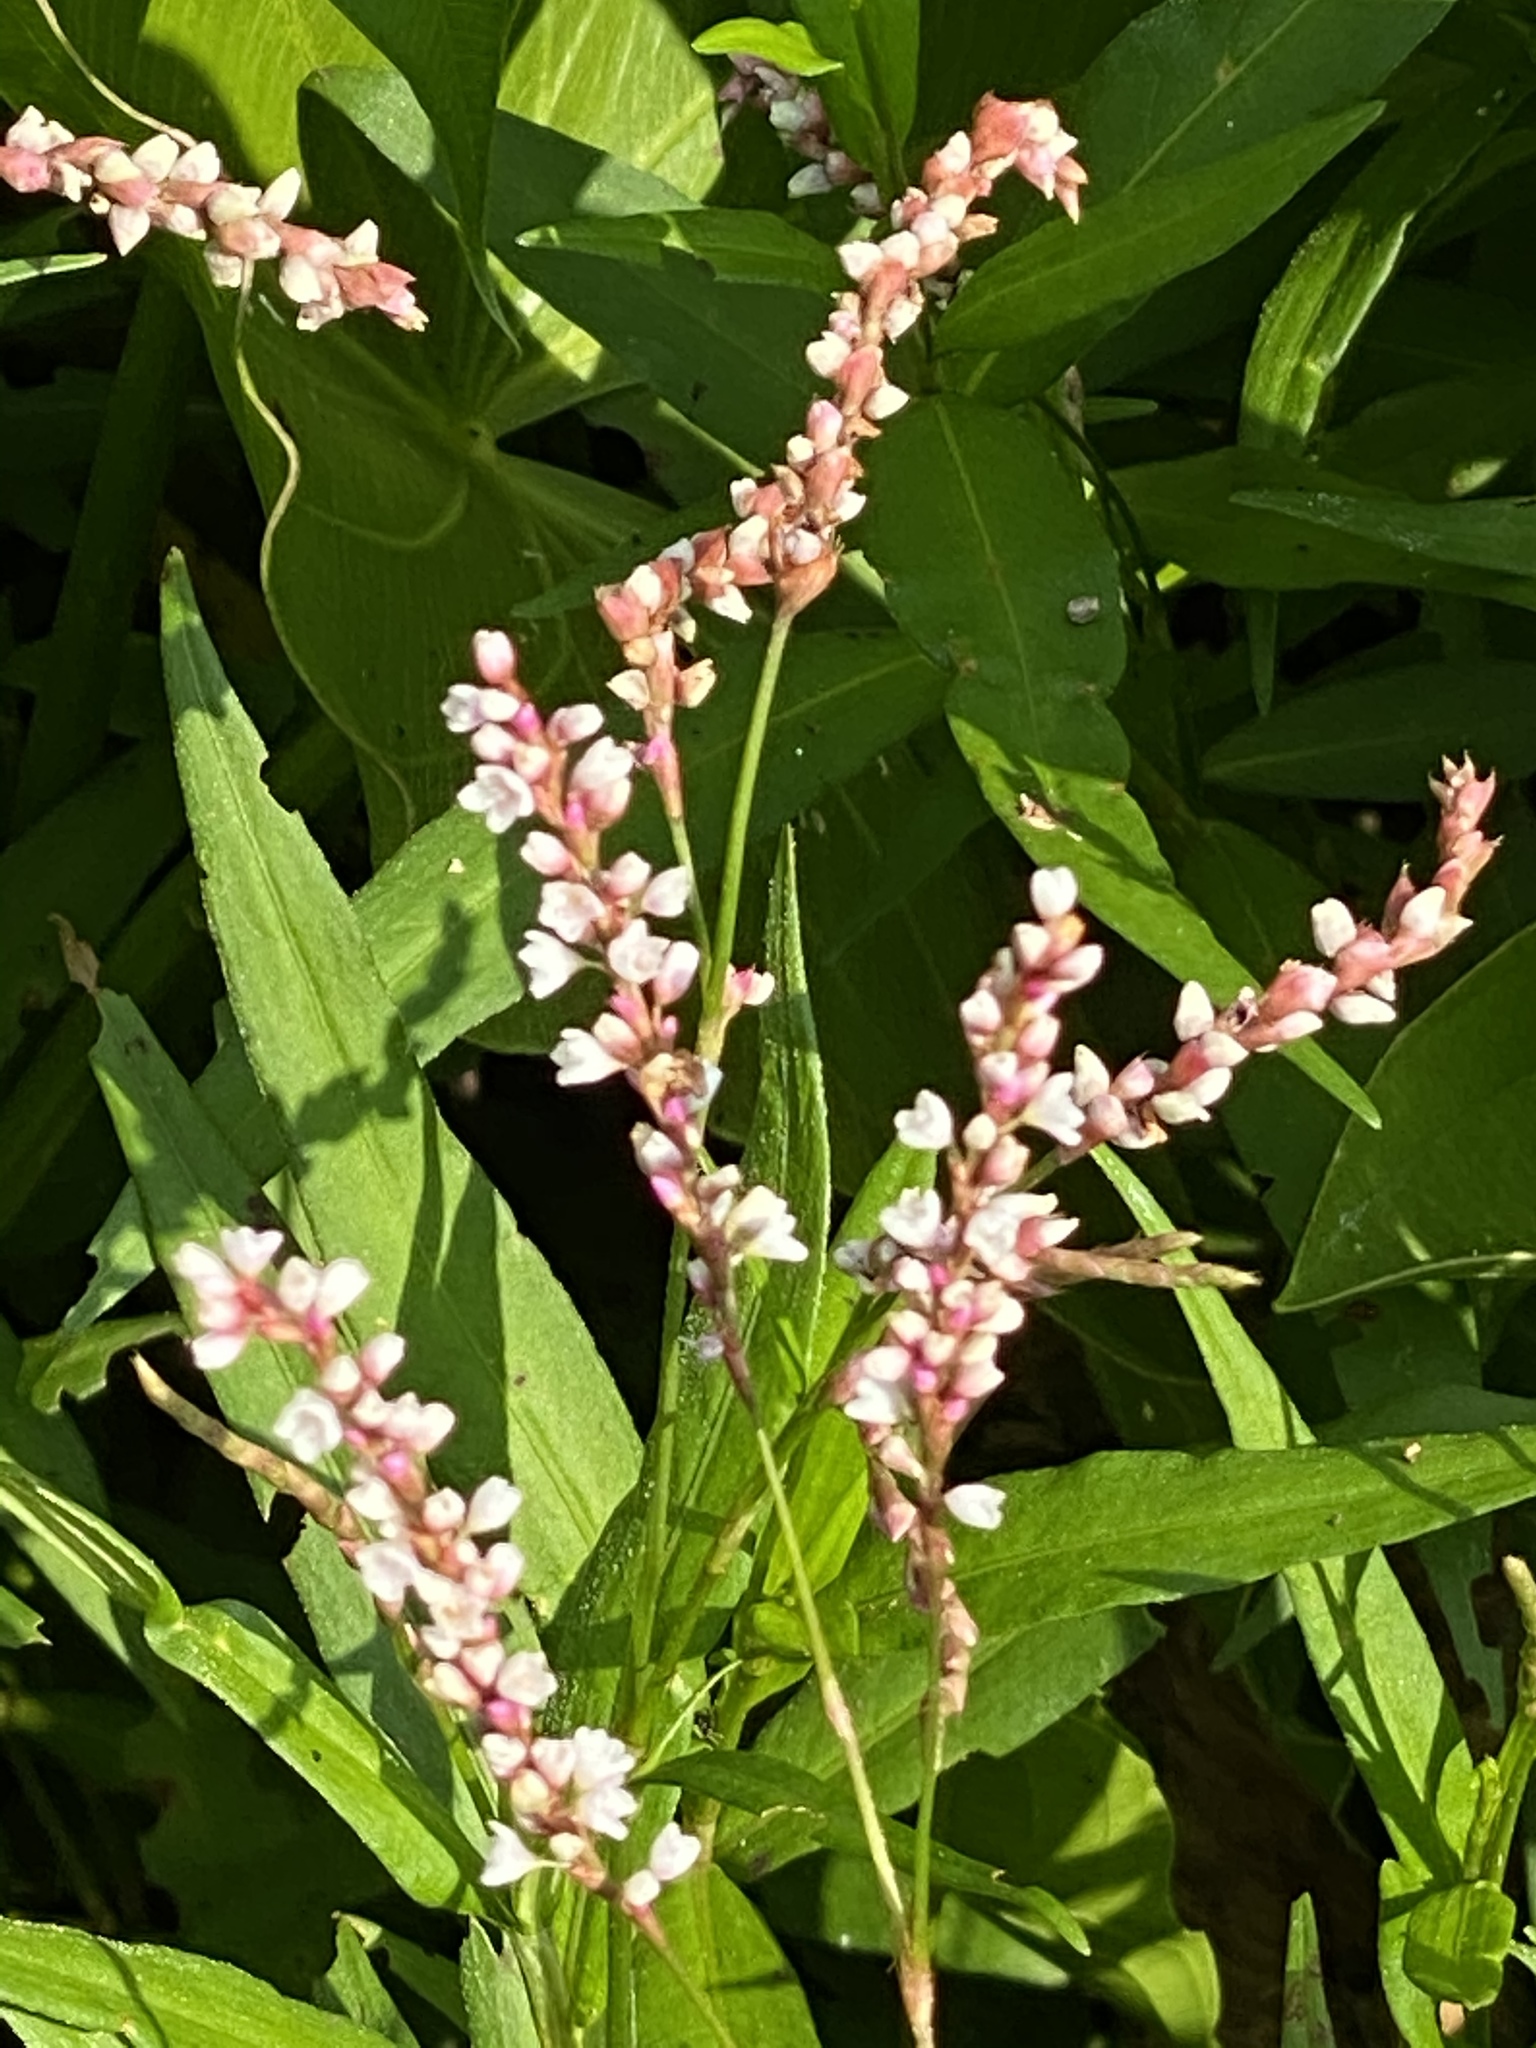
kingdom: Plantae
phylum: Tracheophyta
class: Magnoliopsida
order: Caryophyllales
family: Polygonaceae
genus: Persicaria
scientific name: Persicaria hydropiperoides
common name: Swamp smartweed
